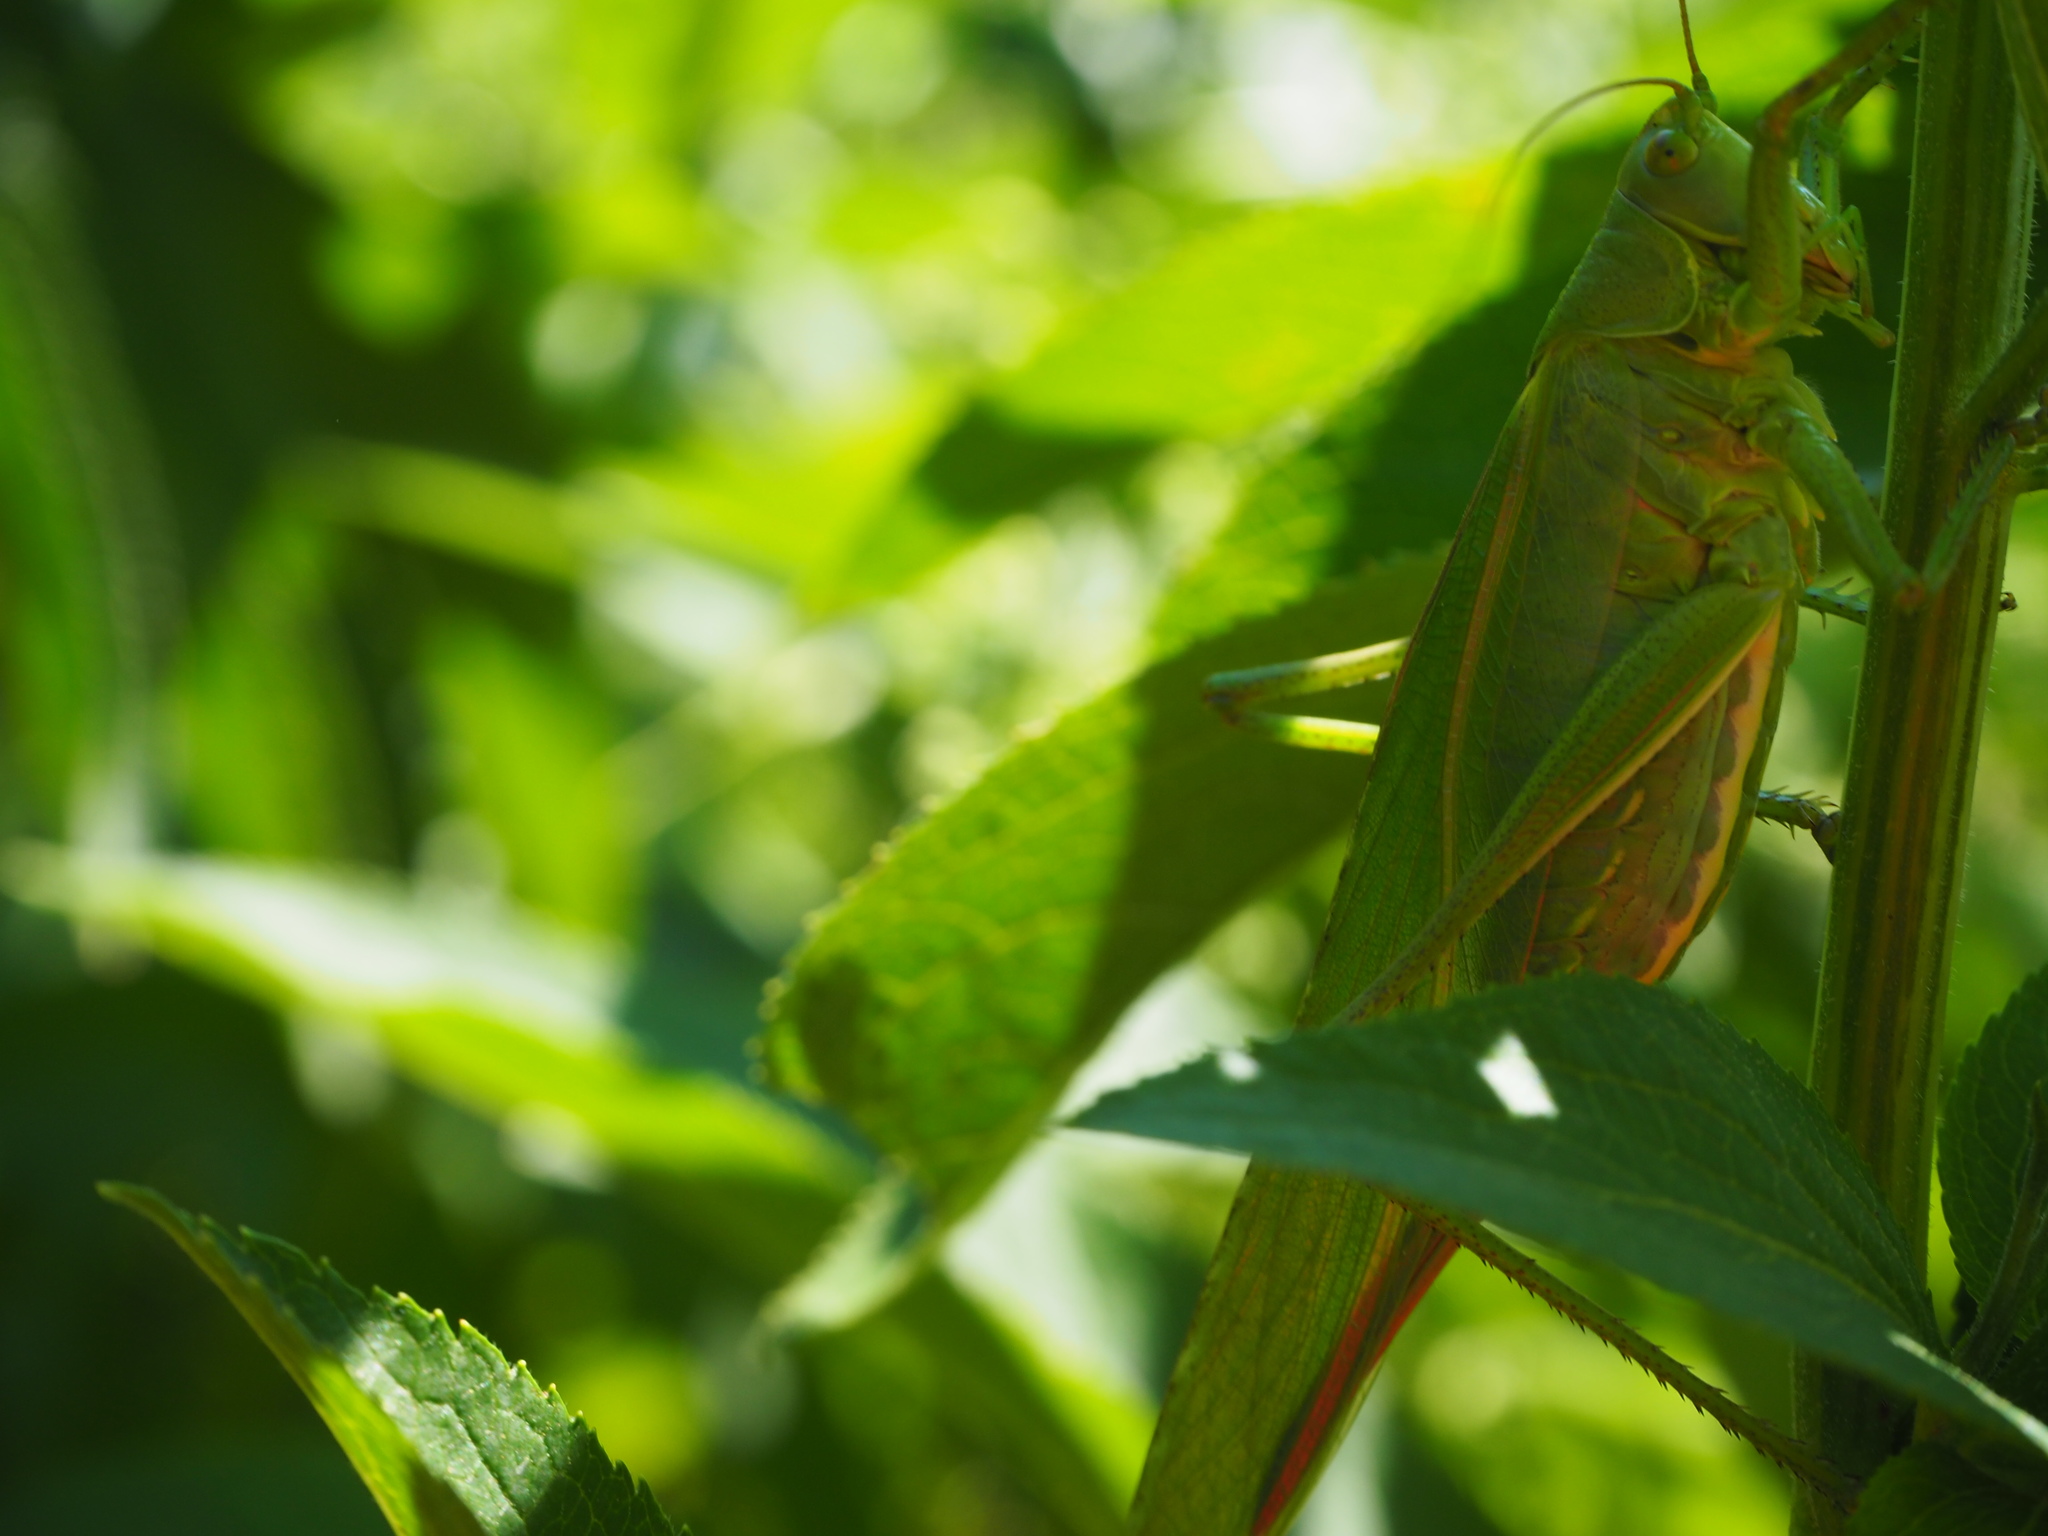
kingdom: Animalia
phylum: Arthropoda
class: Insecta
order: Orthoptera
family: Tettigoniidae
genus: Tettigonia
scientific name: Tettigonia viridissima
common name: Great green bush-cricket
